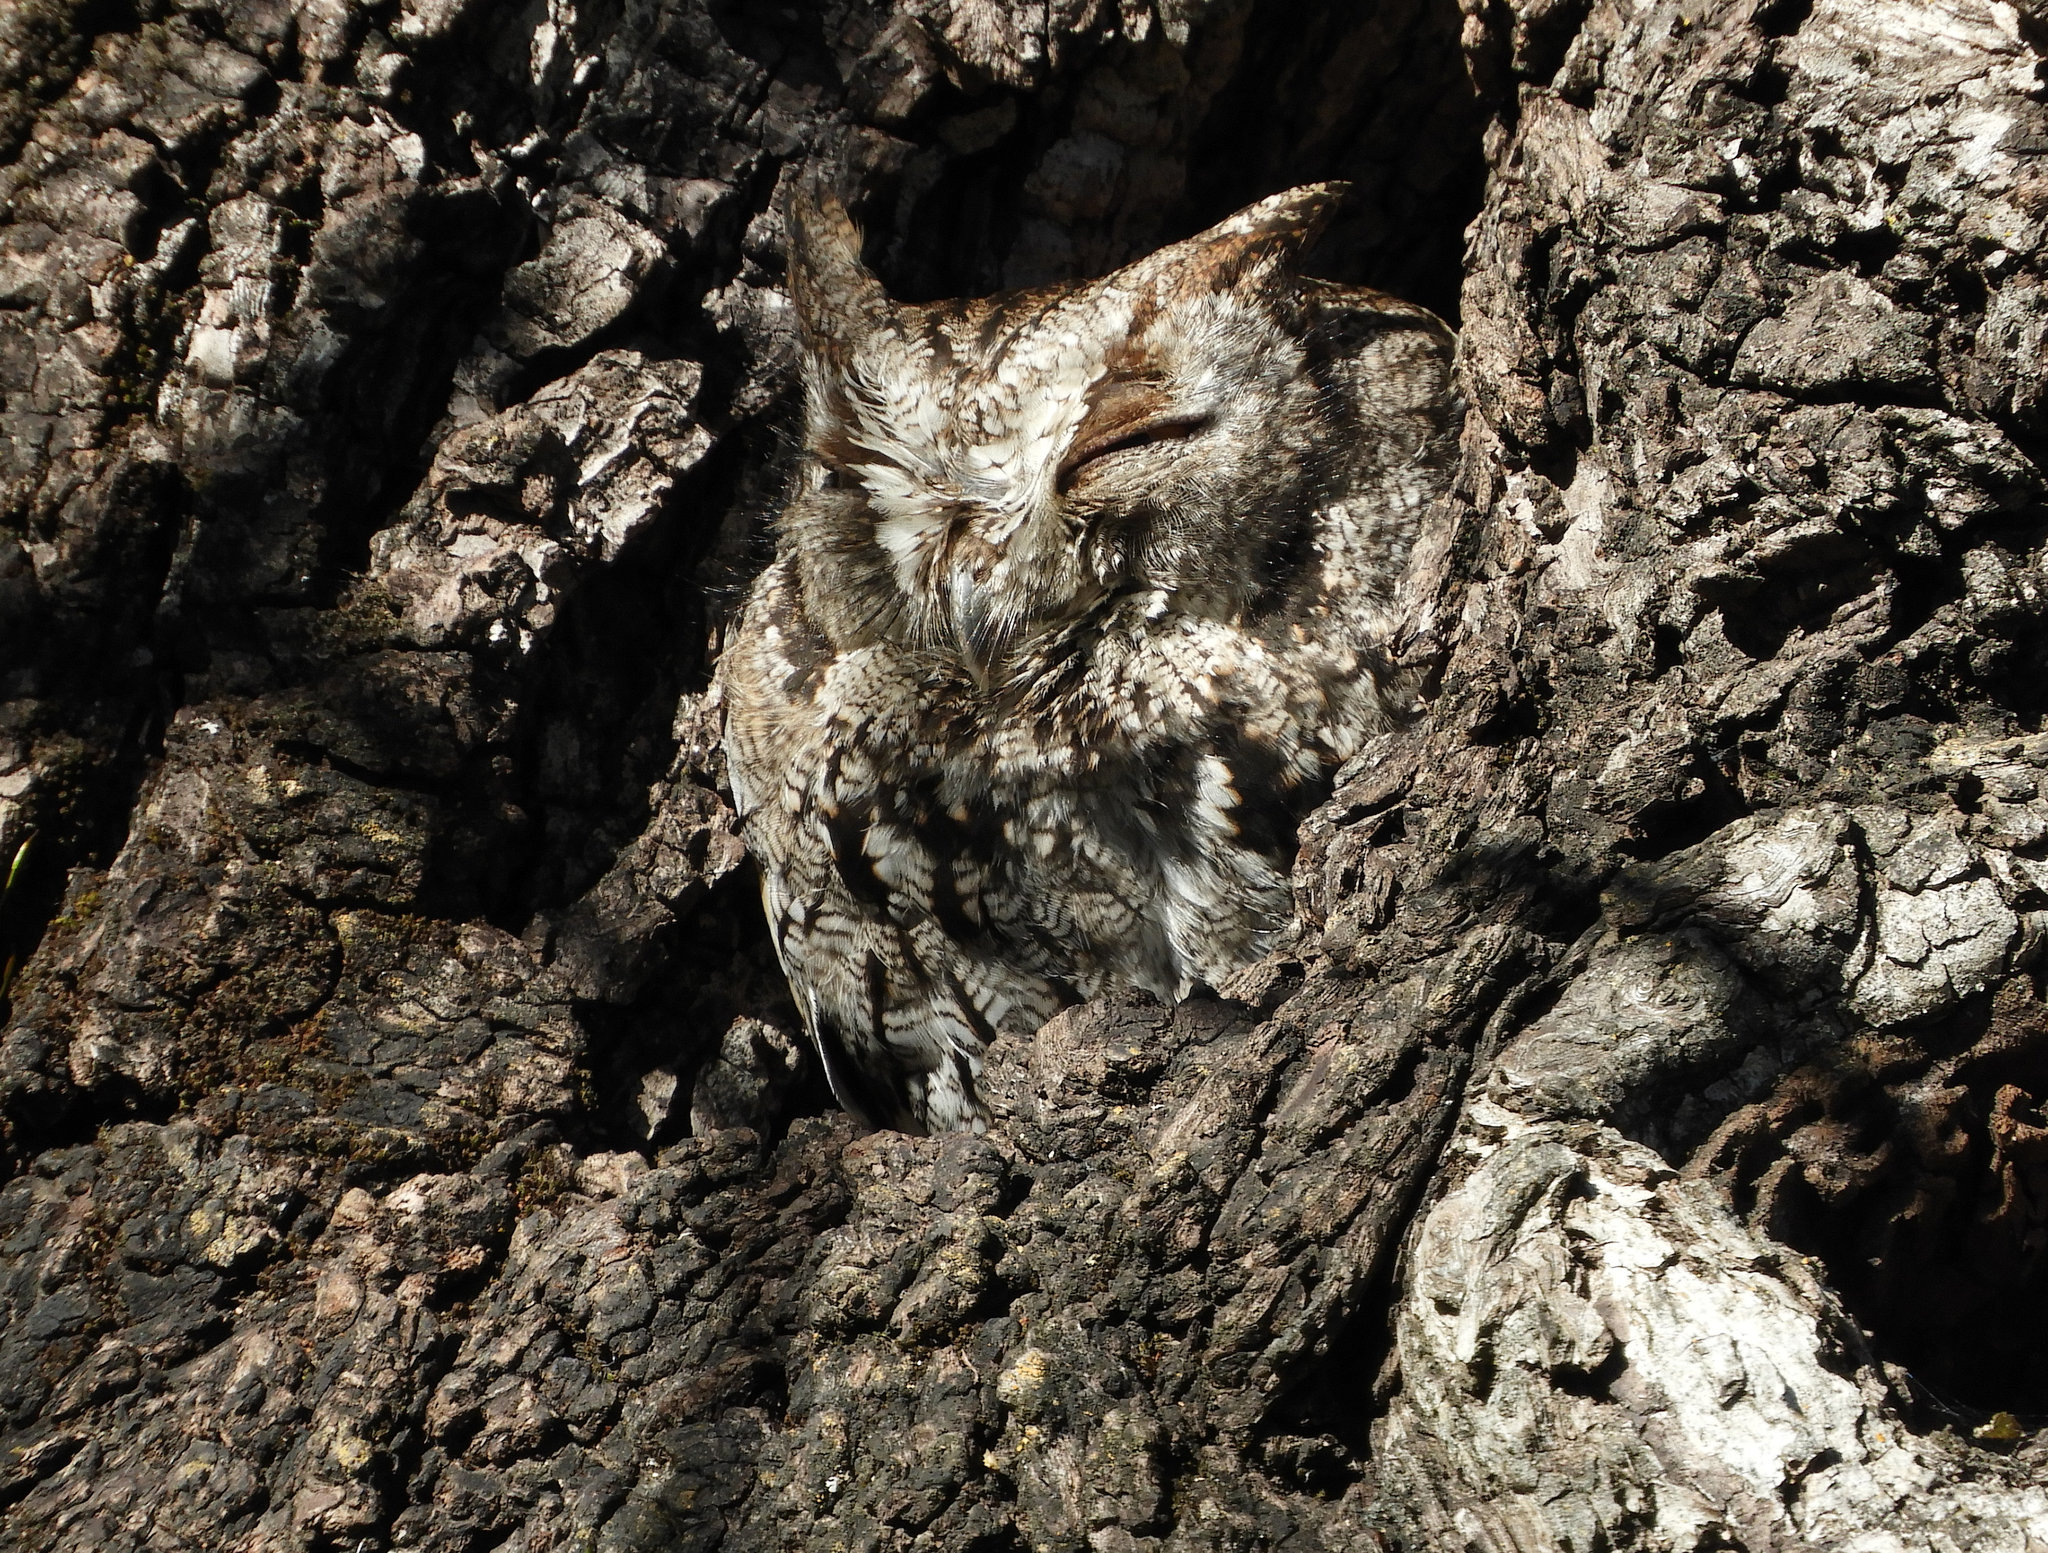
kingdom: Animalia
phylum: Chordata
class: Aves
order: Strigiformes
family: Strigidae
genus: Megascops
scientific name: Megascops kennicottii
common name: Western screech-owl
